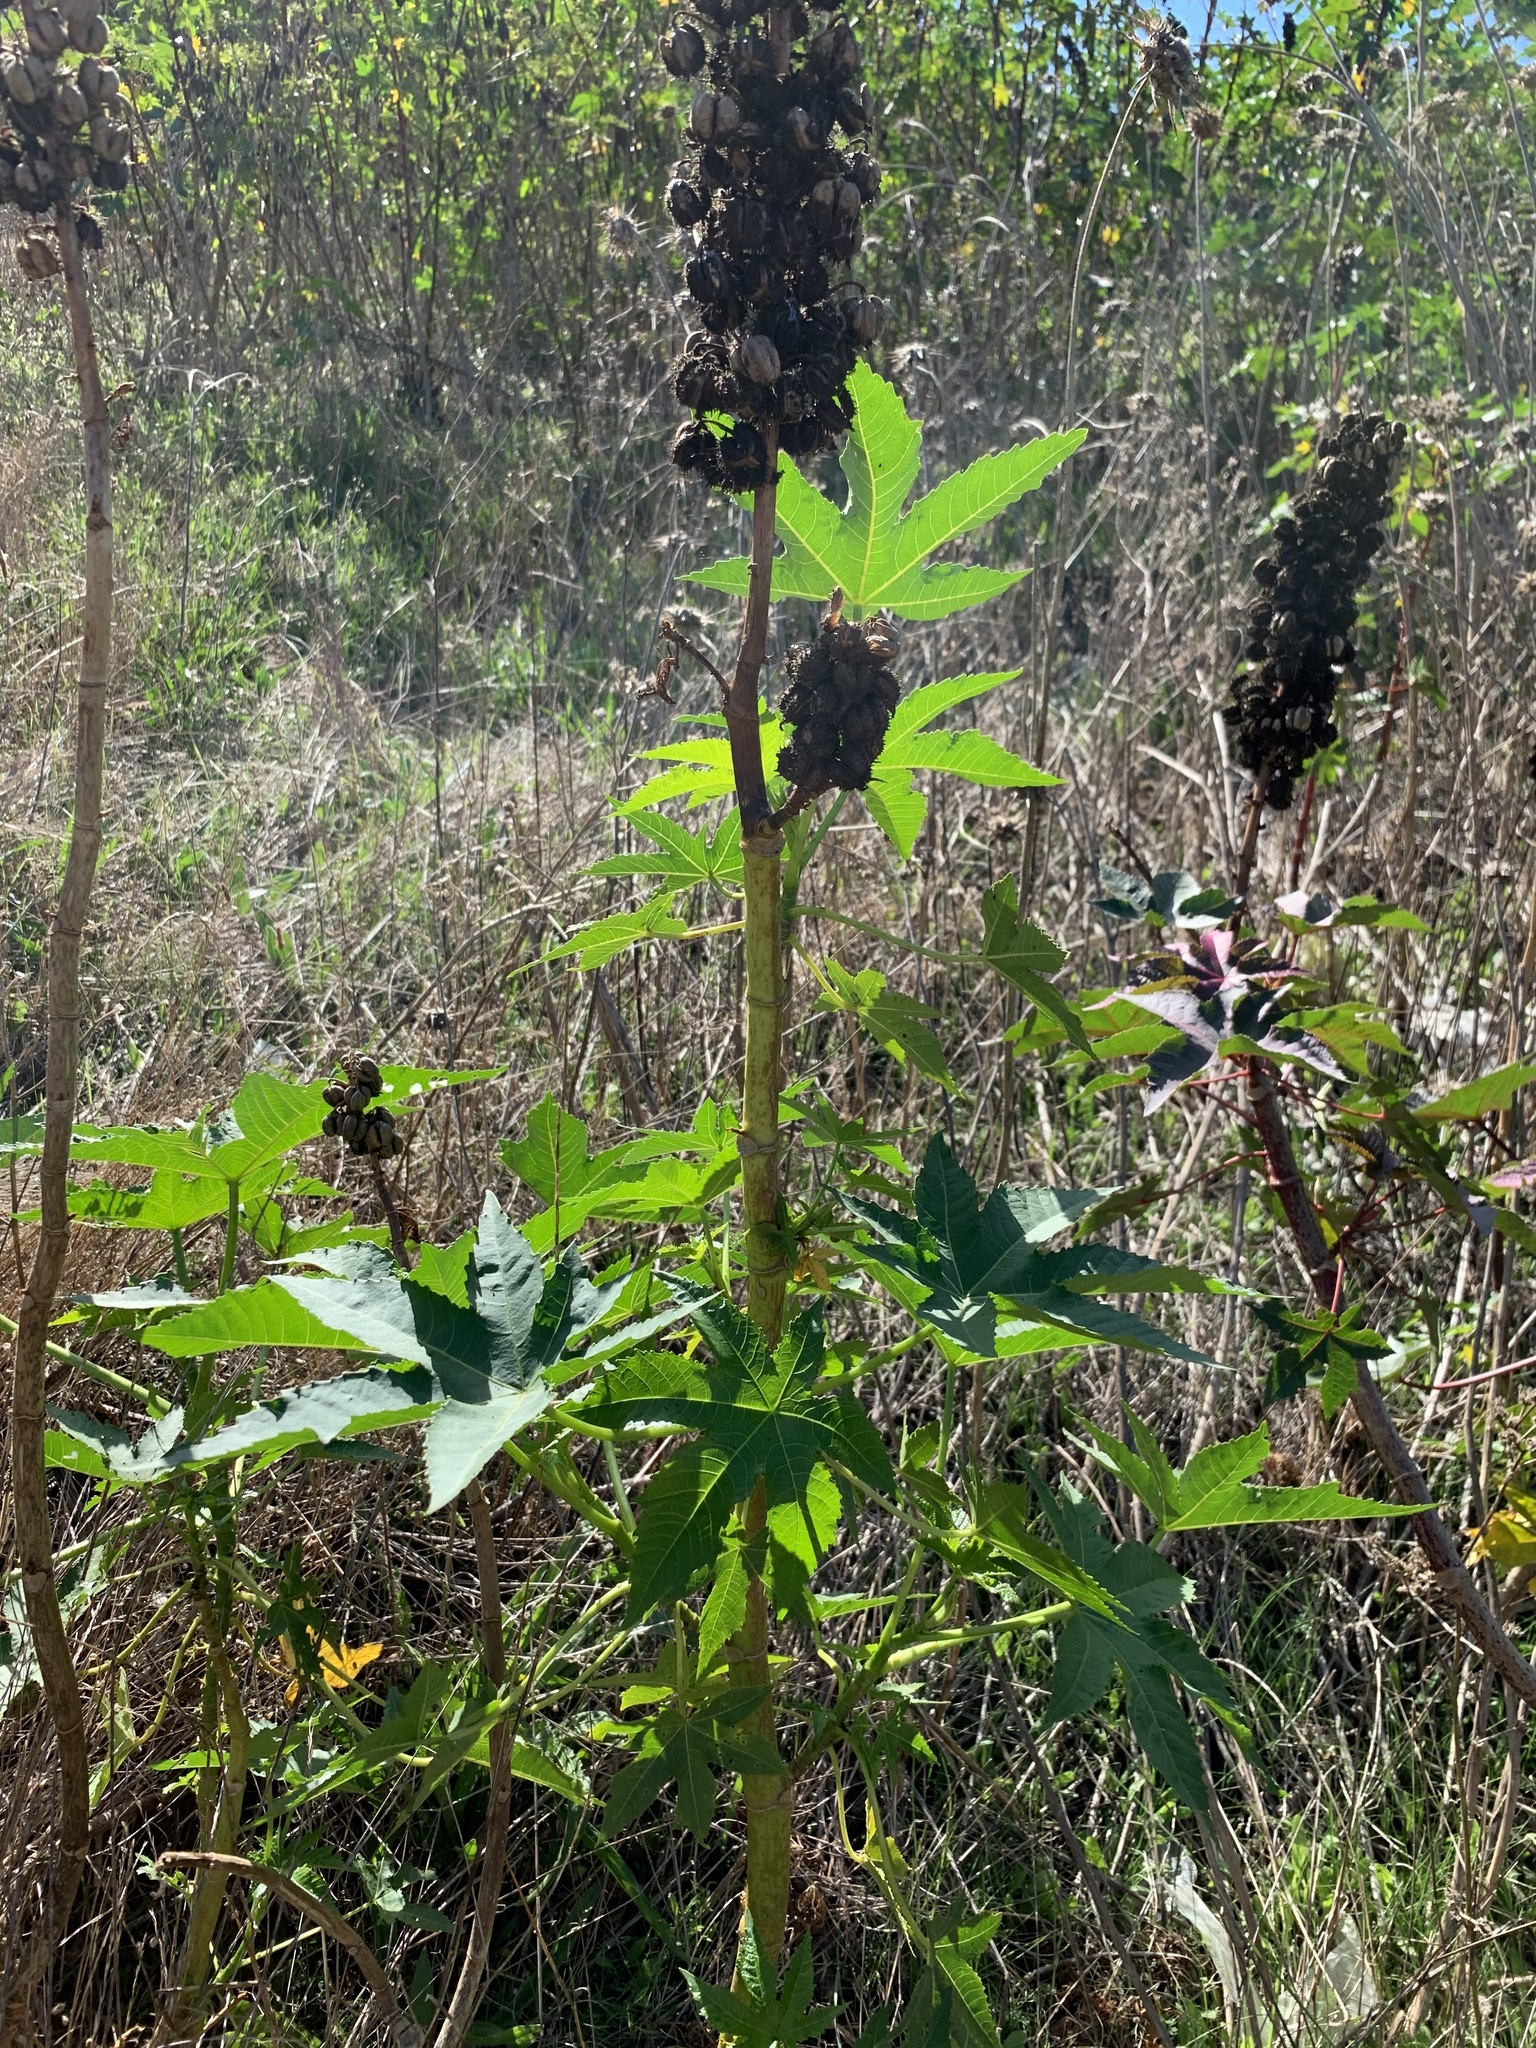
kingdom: Plantae
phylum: Tracheophyta
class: Magnoliopsida
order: Malpighiales
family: Euphorbiaceae
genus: Ricinus
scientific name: Ricinus communis
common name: Castor-oil-plant
